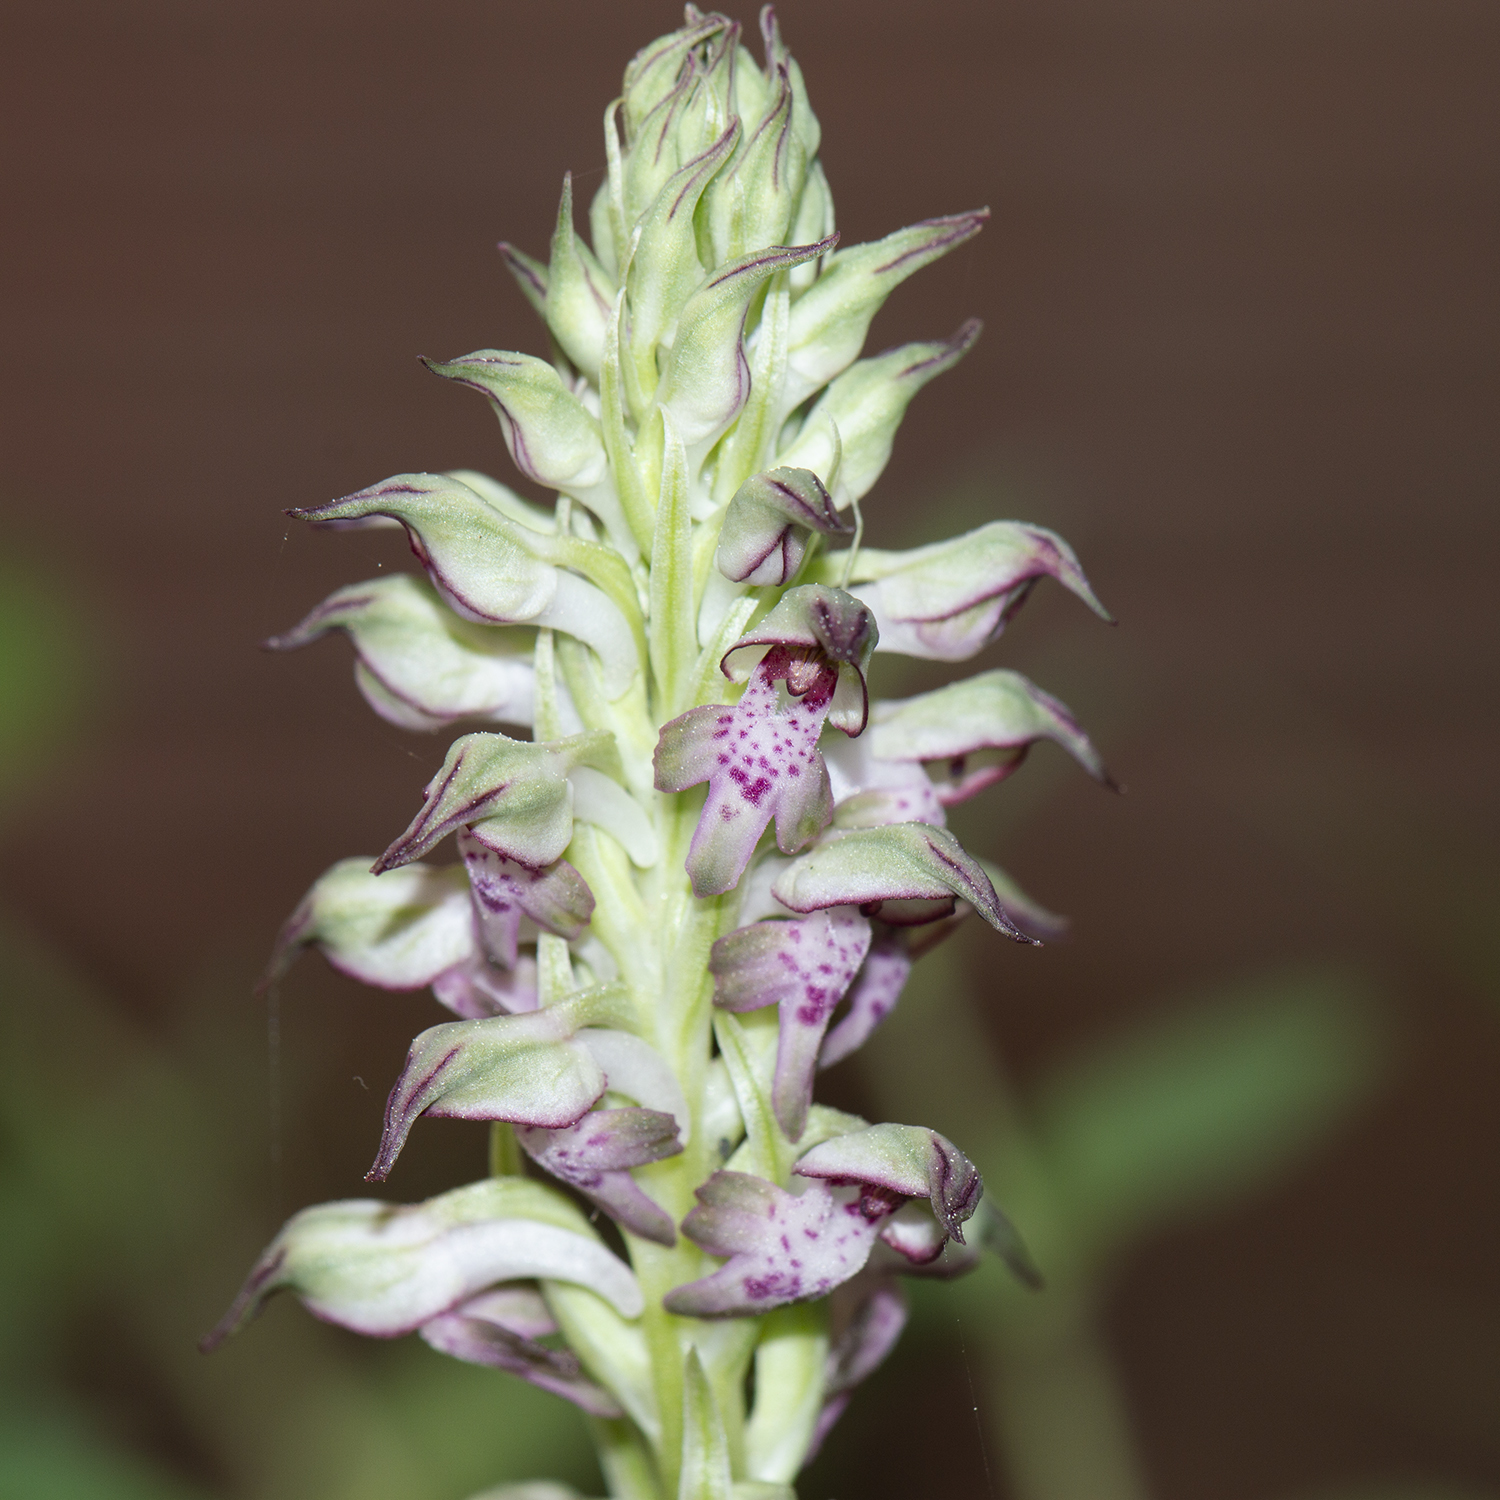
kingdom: Plantae
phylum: Tracheophyta
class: Liliopsida
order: Asparagales
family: Orchidaceae
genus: Anacamptis
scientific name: Anacamptis coriophora
